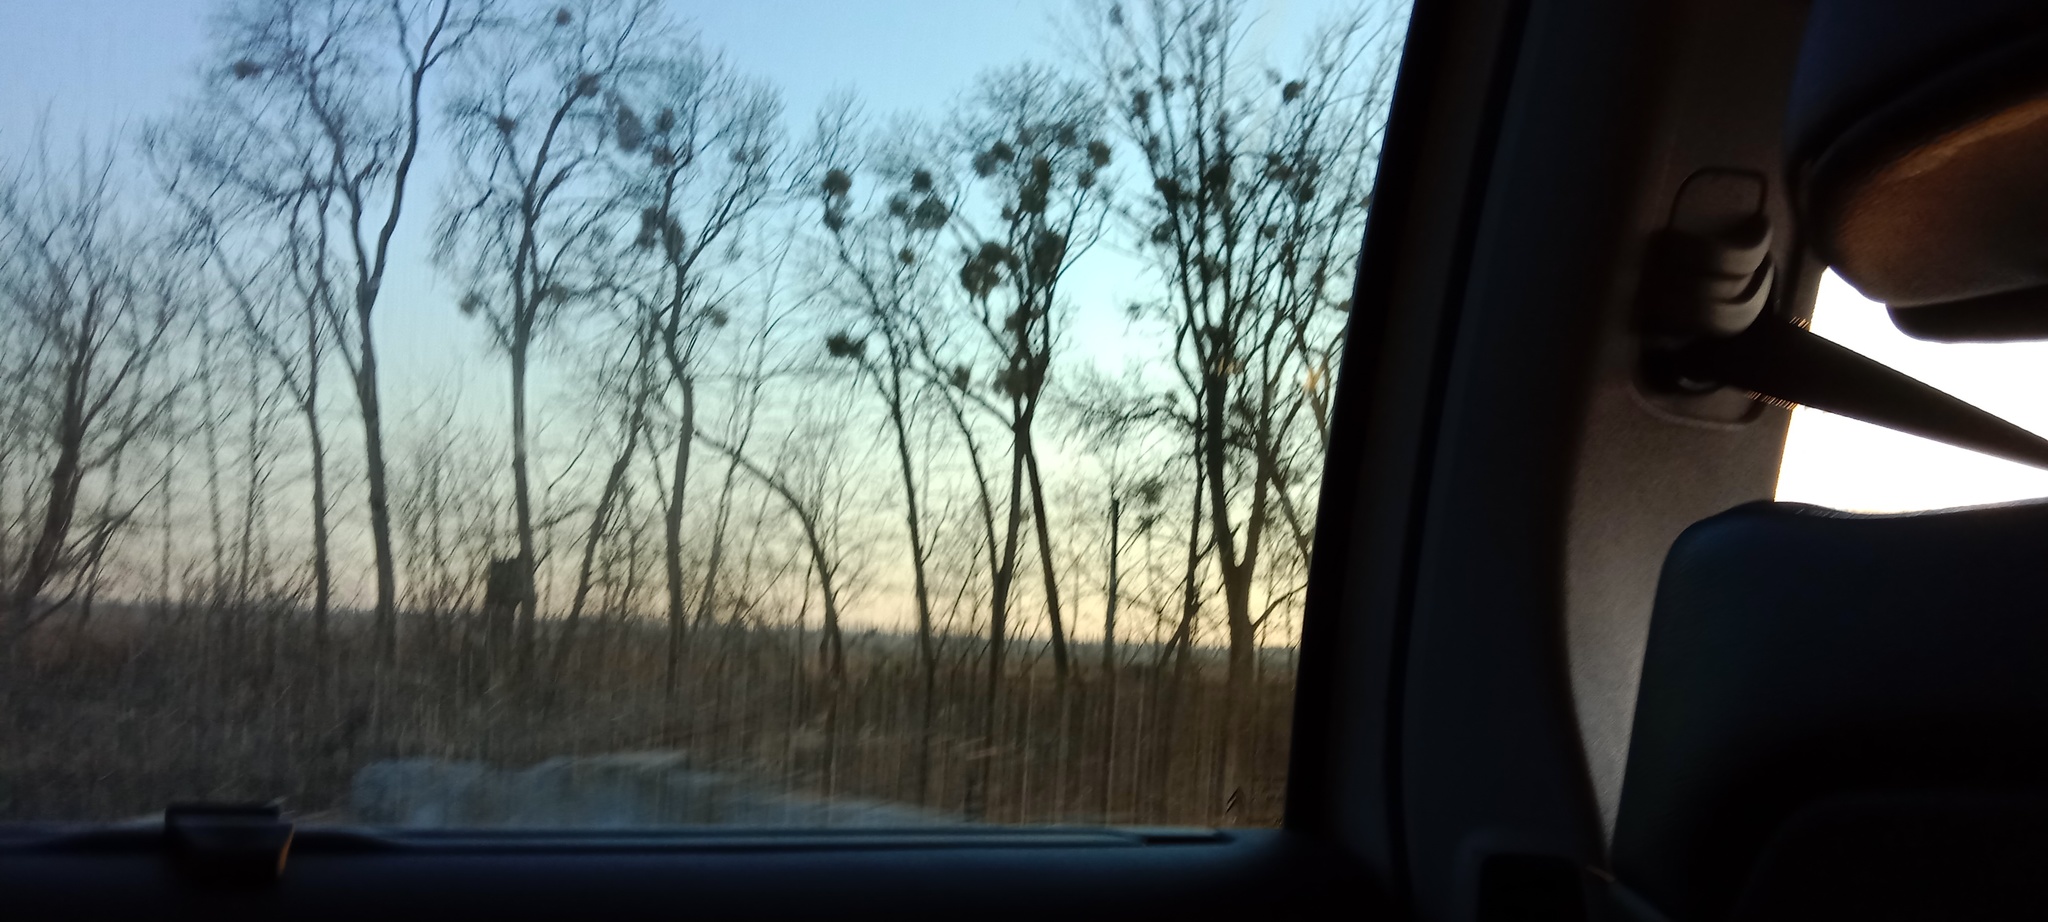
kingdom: Plantae
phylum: Tracheophyta
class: Magnoliopsida
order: Santalales
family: Viscaceae
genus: Viscum
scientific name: Viscum album
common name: Mistletoe
